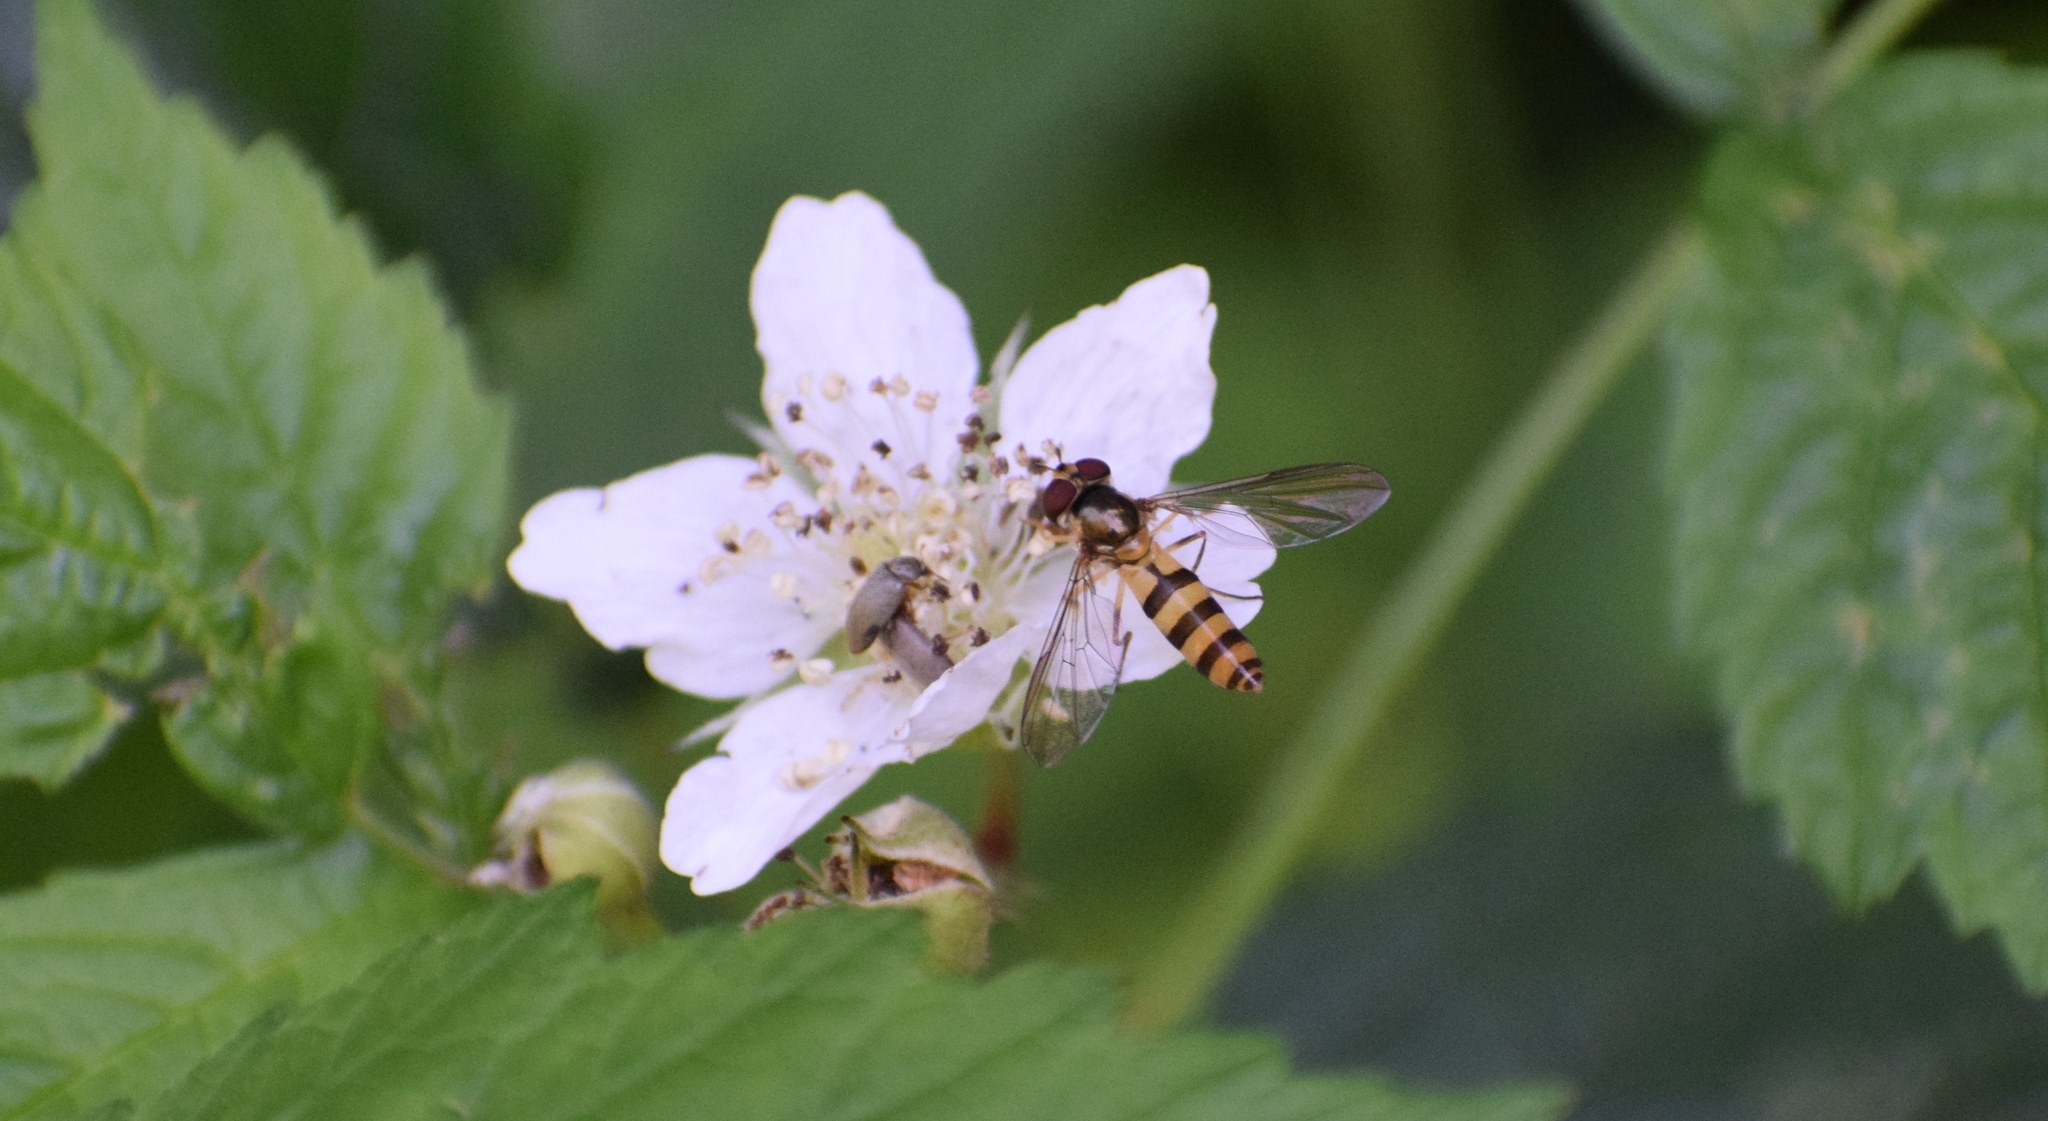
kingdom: Animalia
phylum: Arthropoda
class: Insecta
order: Diptera
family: Syrphidae
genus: Meliscaeva
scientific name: Meliscaeva cinctella
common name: American thintail fly
